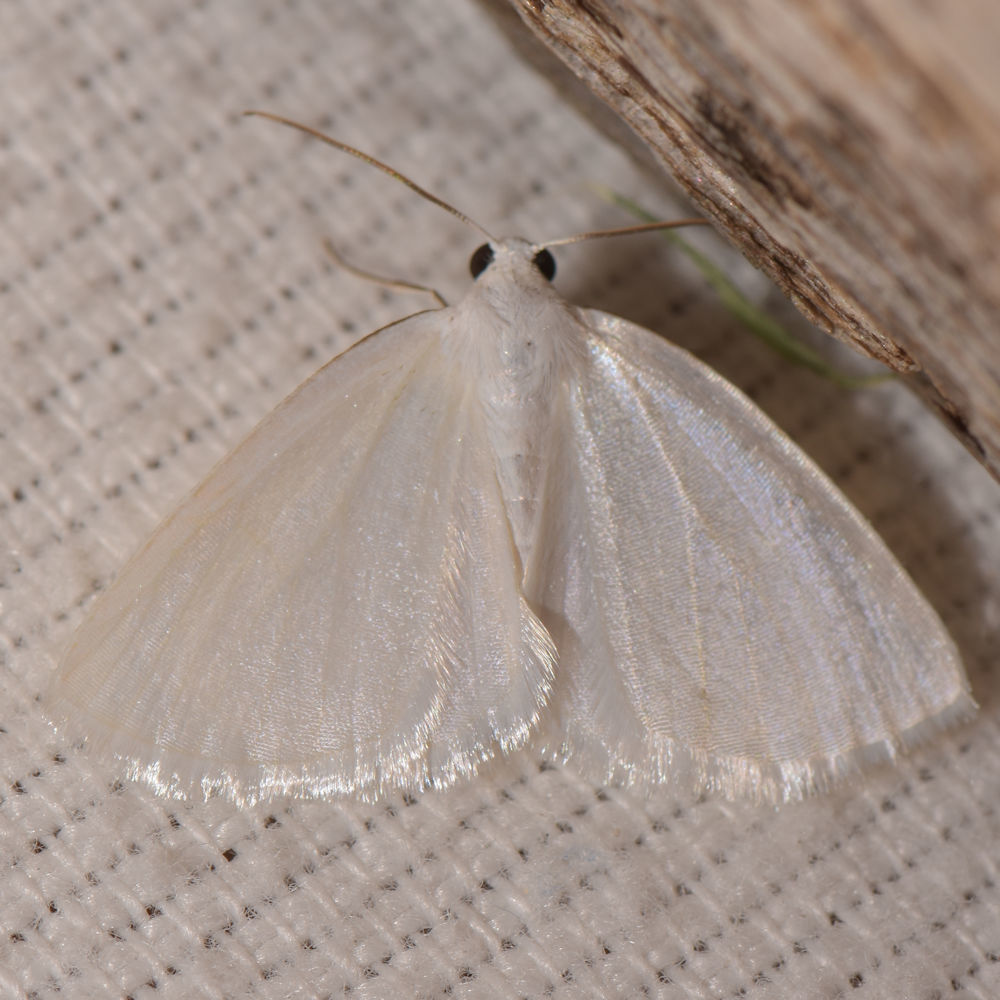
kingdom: Animalia
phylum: Arthropoda
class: Insecta
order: Lepidoptera
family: Geometridae
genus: Lomographa
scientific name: Lomographa vestaliata
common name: White spring moth
